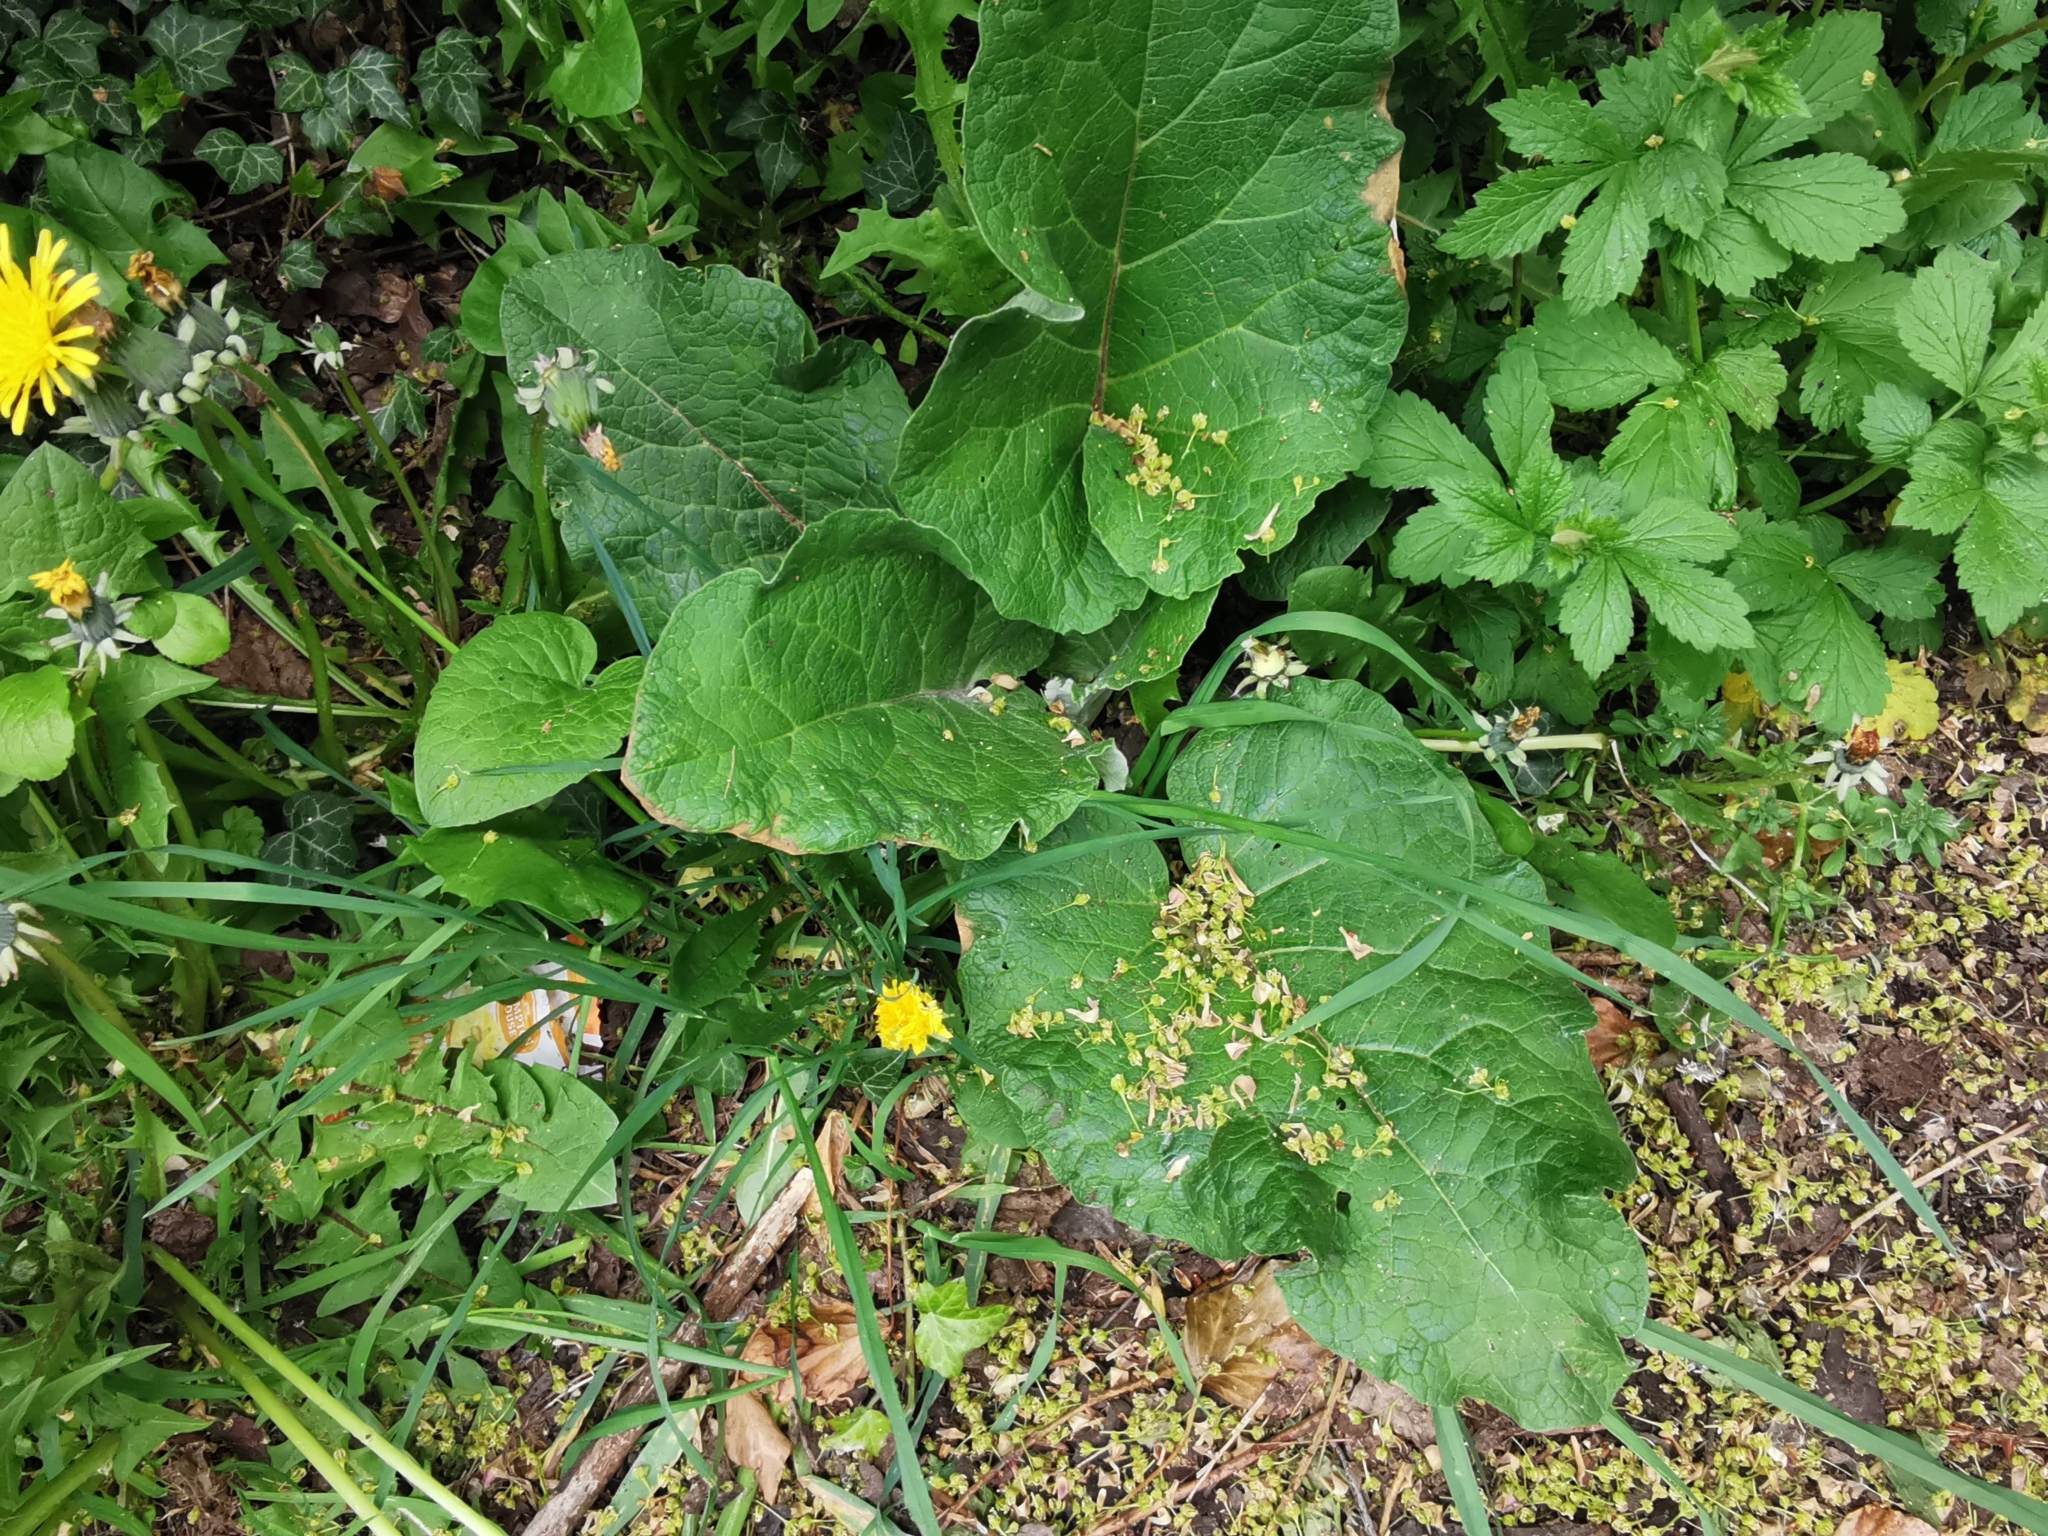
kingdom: Plantae
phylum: Tracheophyta
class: Magnoliopsida
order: Asterales
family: Asteraceae
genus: Arctium
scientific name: Arctium minus
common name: Lesser burdock
